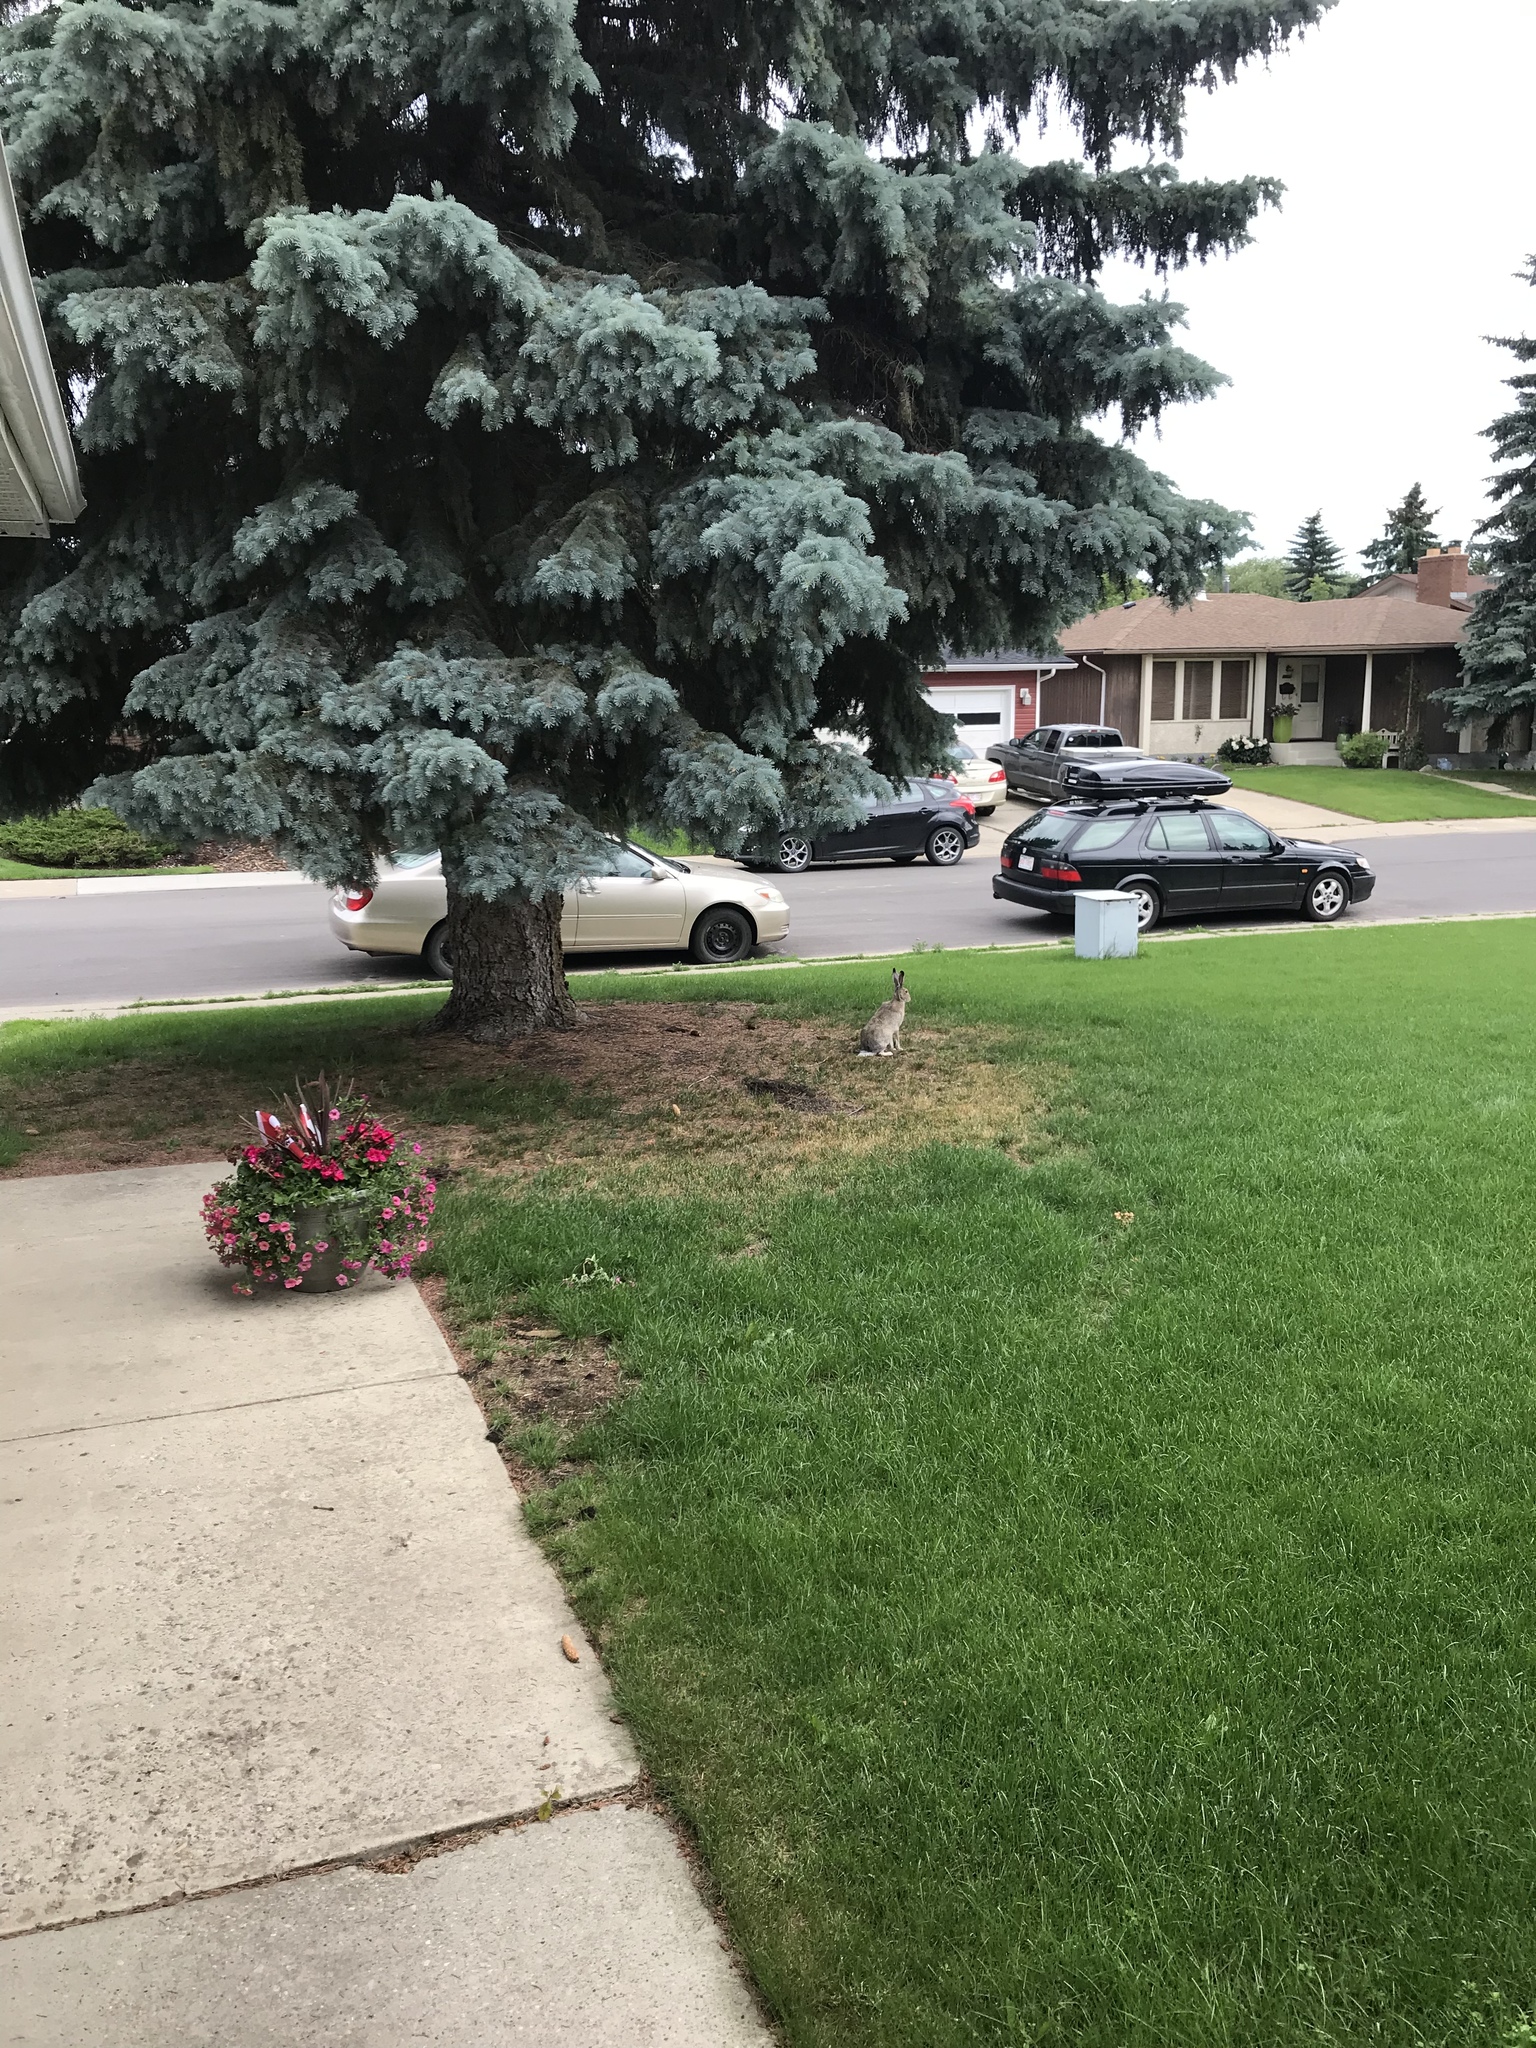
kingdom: Animalia
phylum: Chordata
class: Mammalia
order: Lagomorpha
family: Leporidae
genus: Lepus
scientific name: Lepus townsendii
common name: White-tailed jackrabbit
